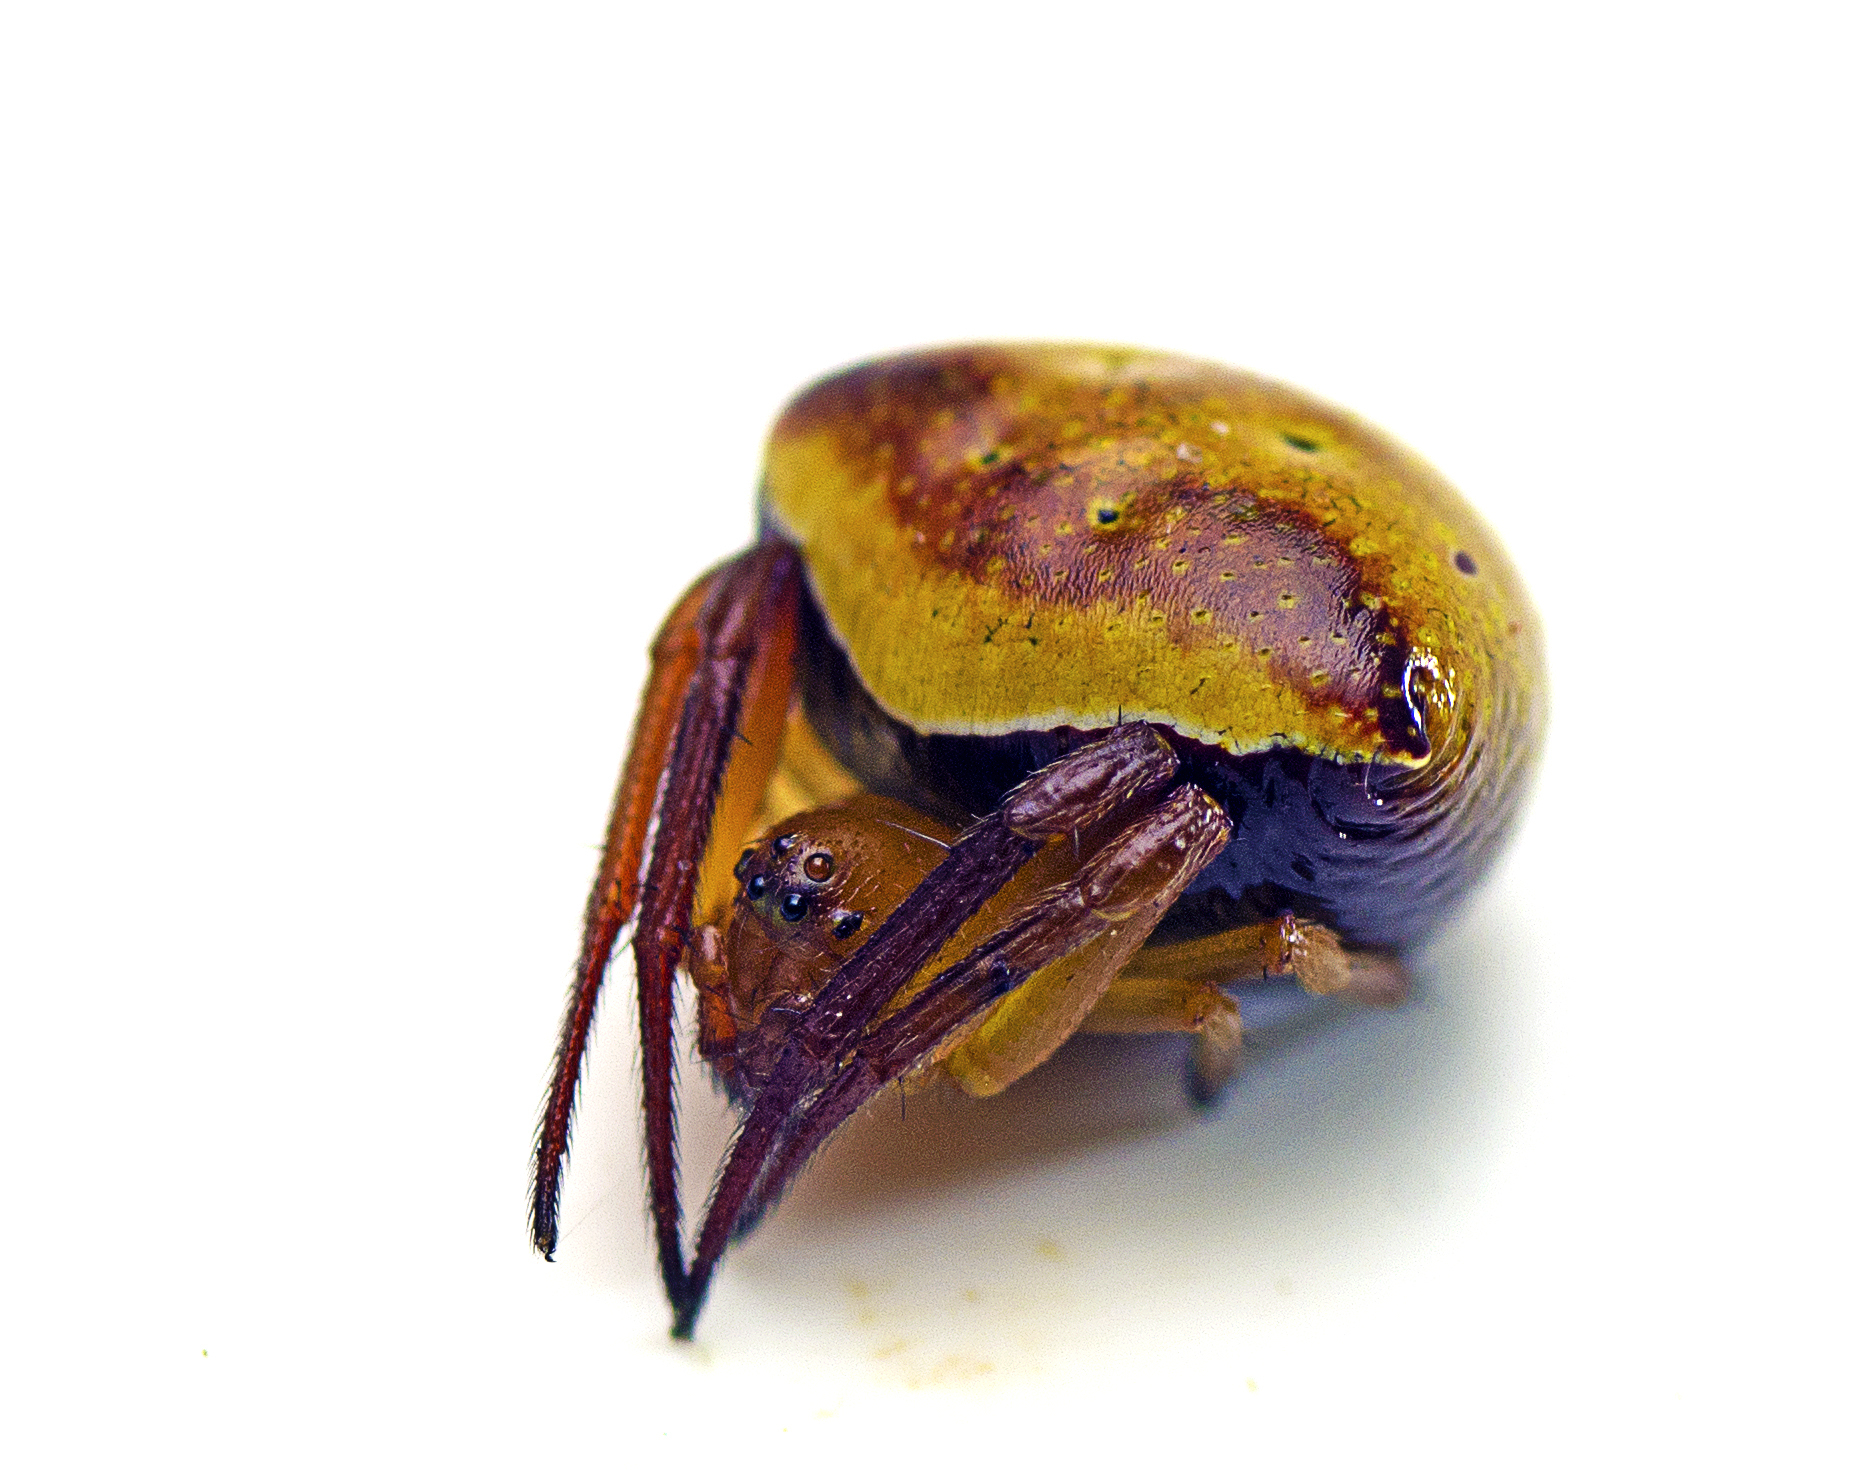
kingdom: Animalia
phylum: Arthropoda
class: Arachnida
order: Araneae
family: Araneidae
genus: Araneus
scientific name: Araneus cyrtarachnoides
